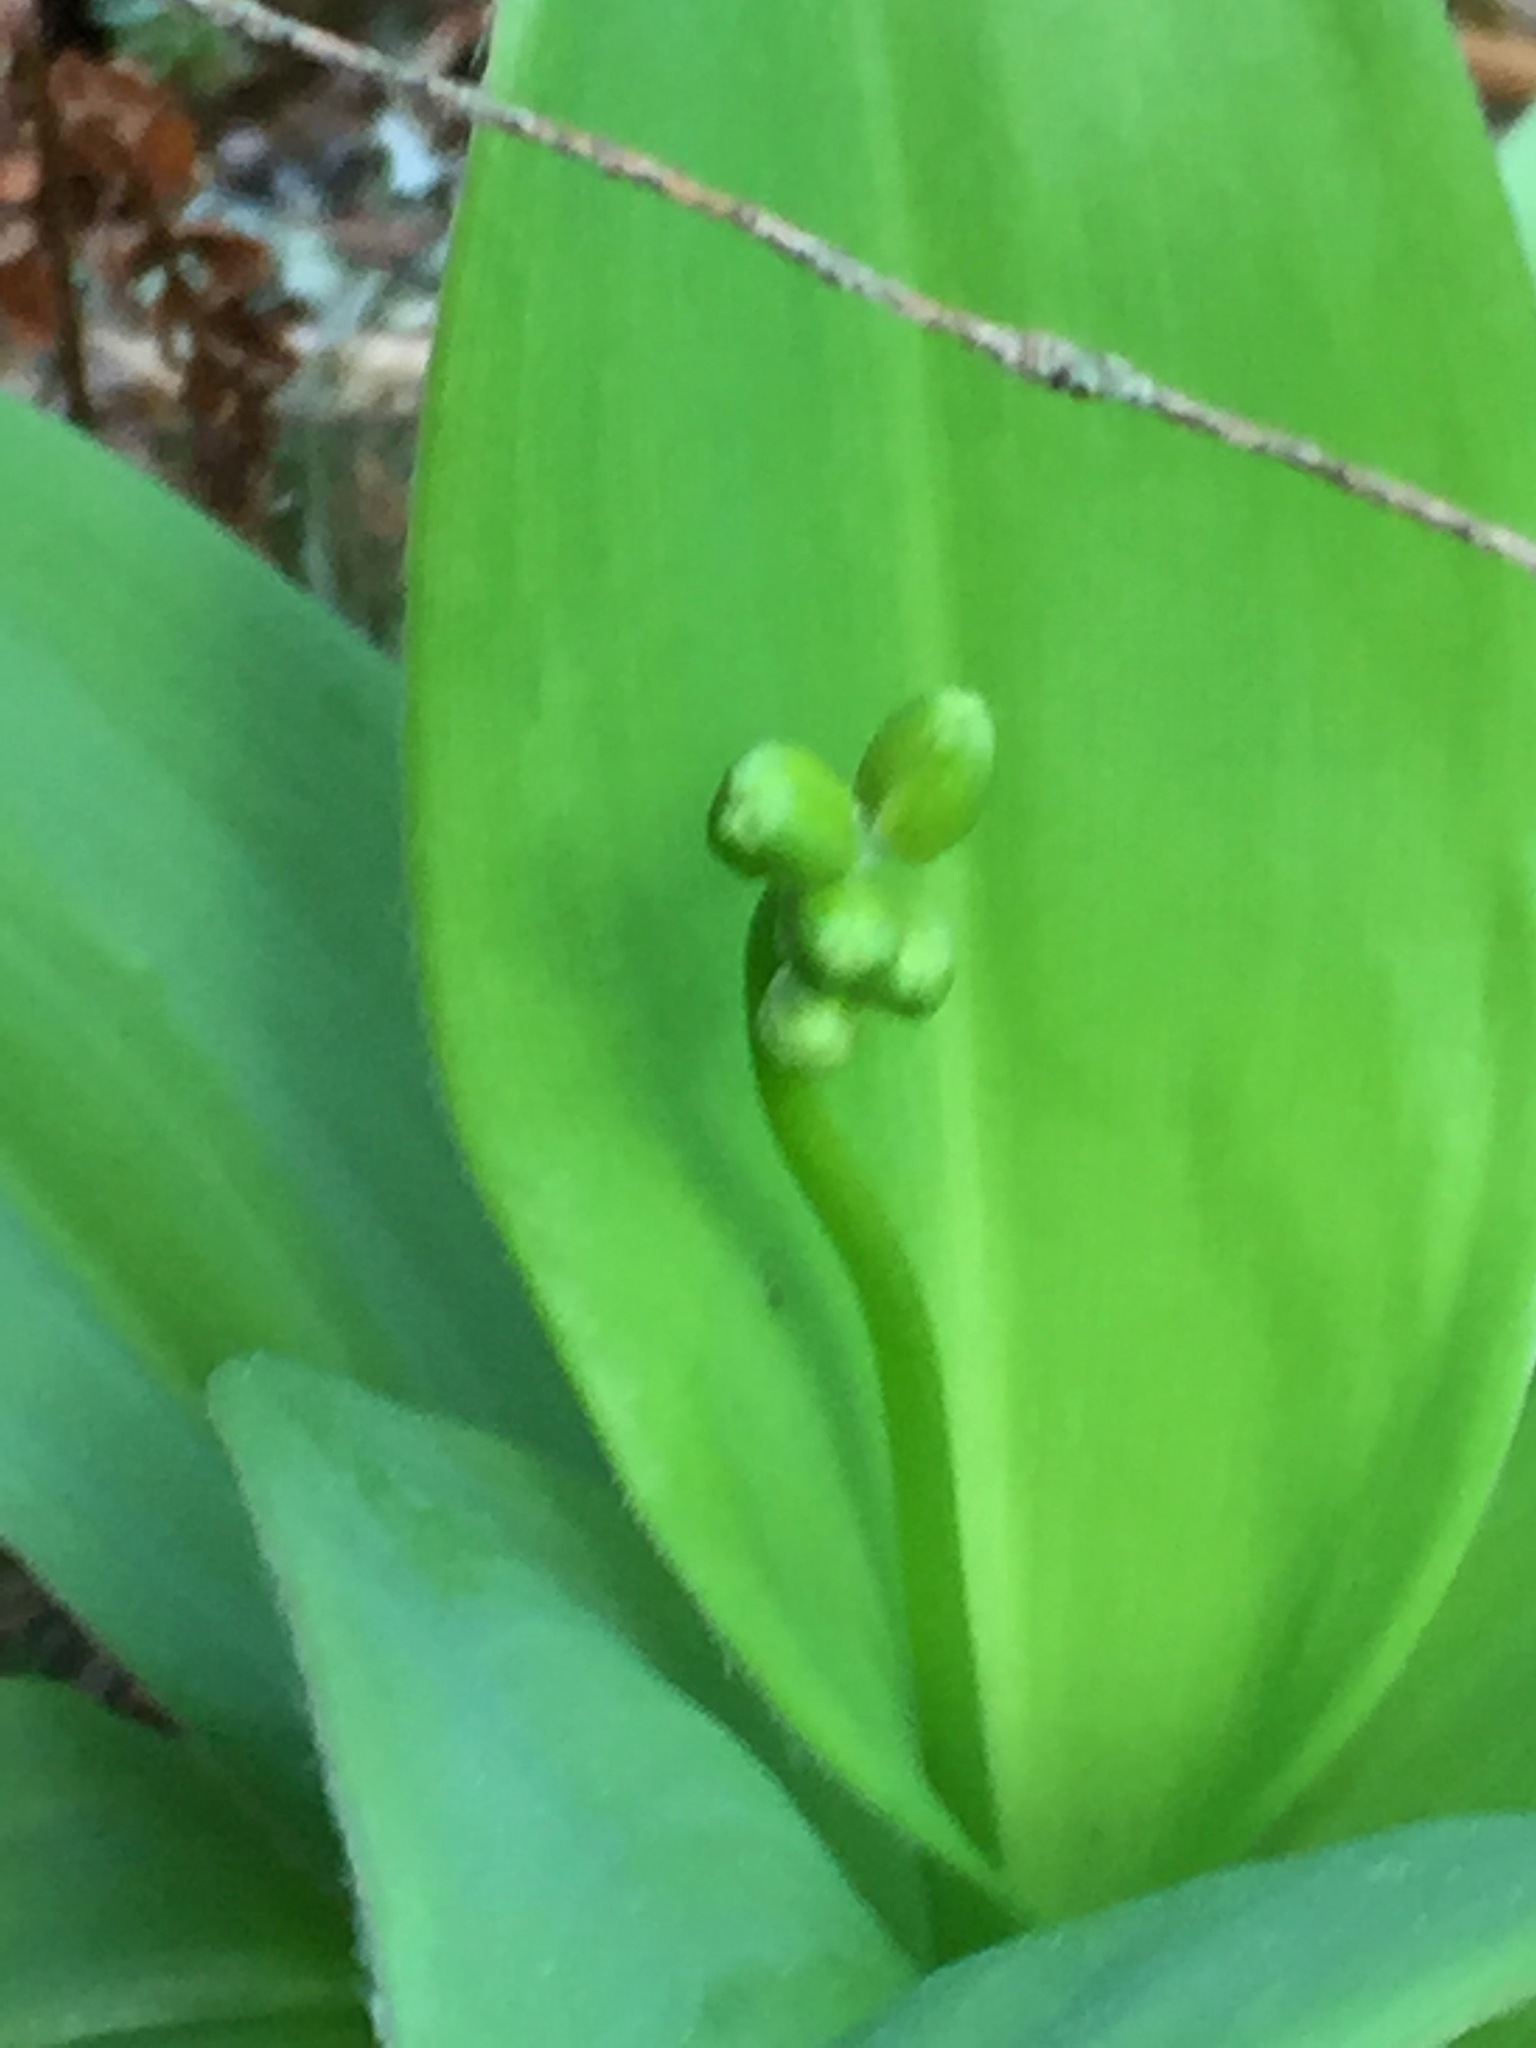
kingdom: Plantae
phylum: Tracheophyta
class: Liliopsida
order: Liliales
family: Liliaceae
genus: Clintonia
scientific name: Clintonia borealis
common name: Yellow clintonia
